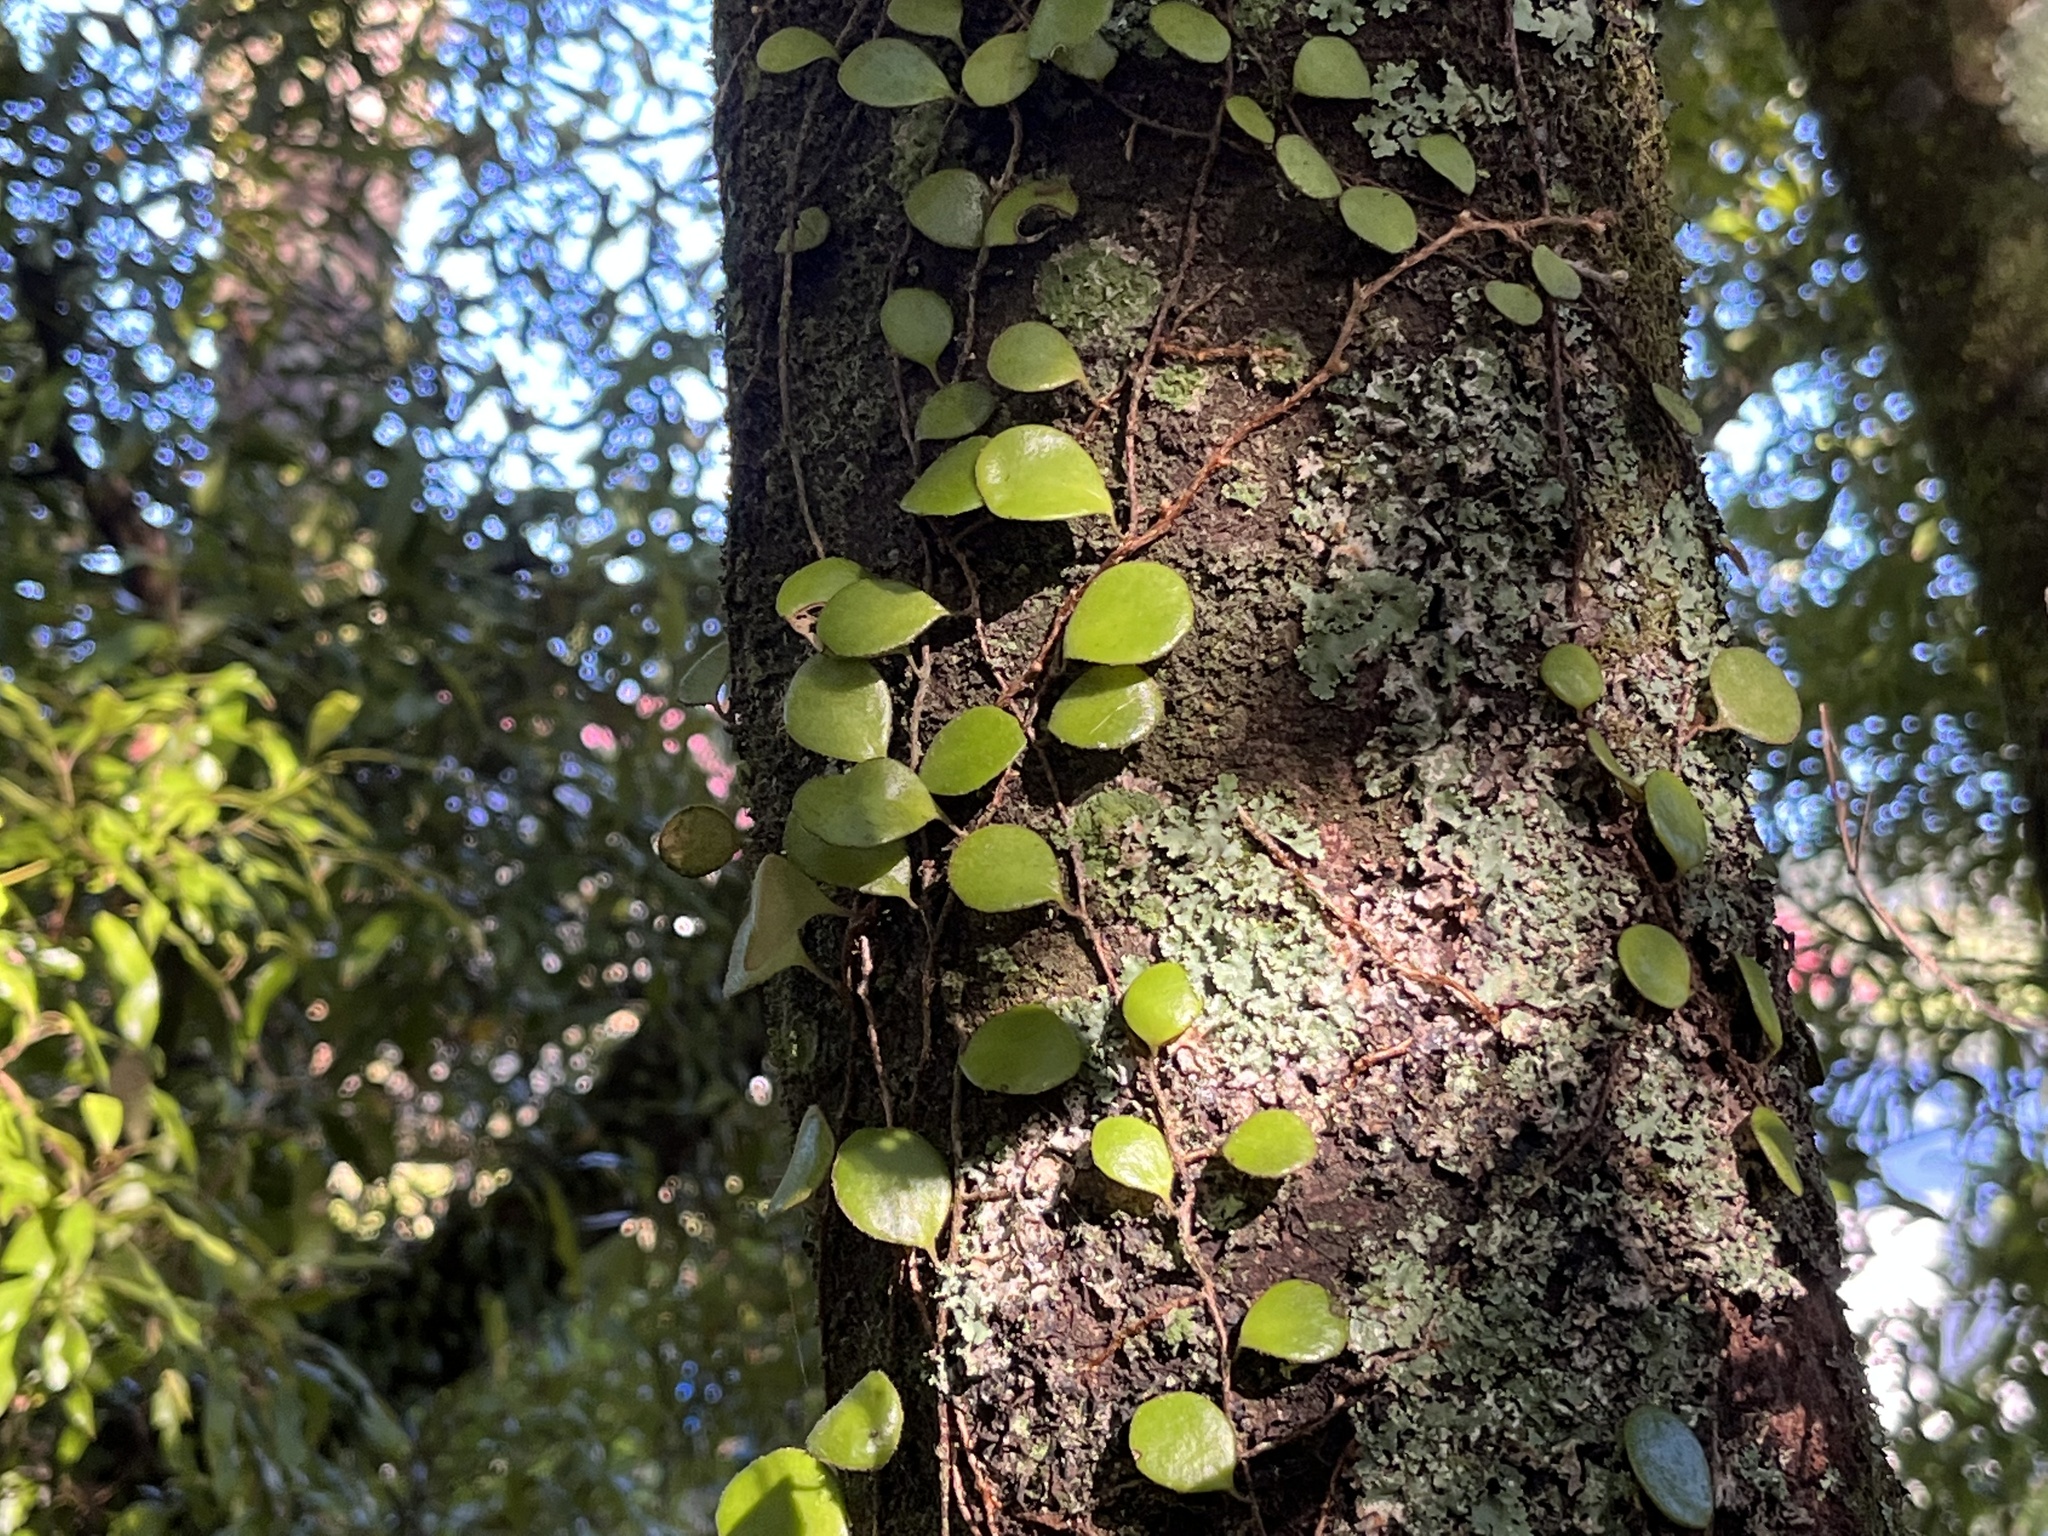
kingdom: Plantae
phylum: Tracheophyta
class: Polypodiopsida
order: Polypodiales
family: Polypodiaceae
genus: Pyrrosia
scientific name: Pyrrosia eleagnifolia
